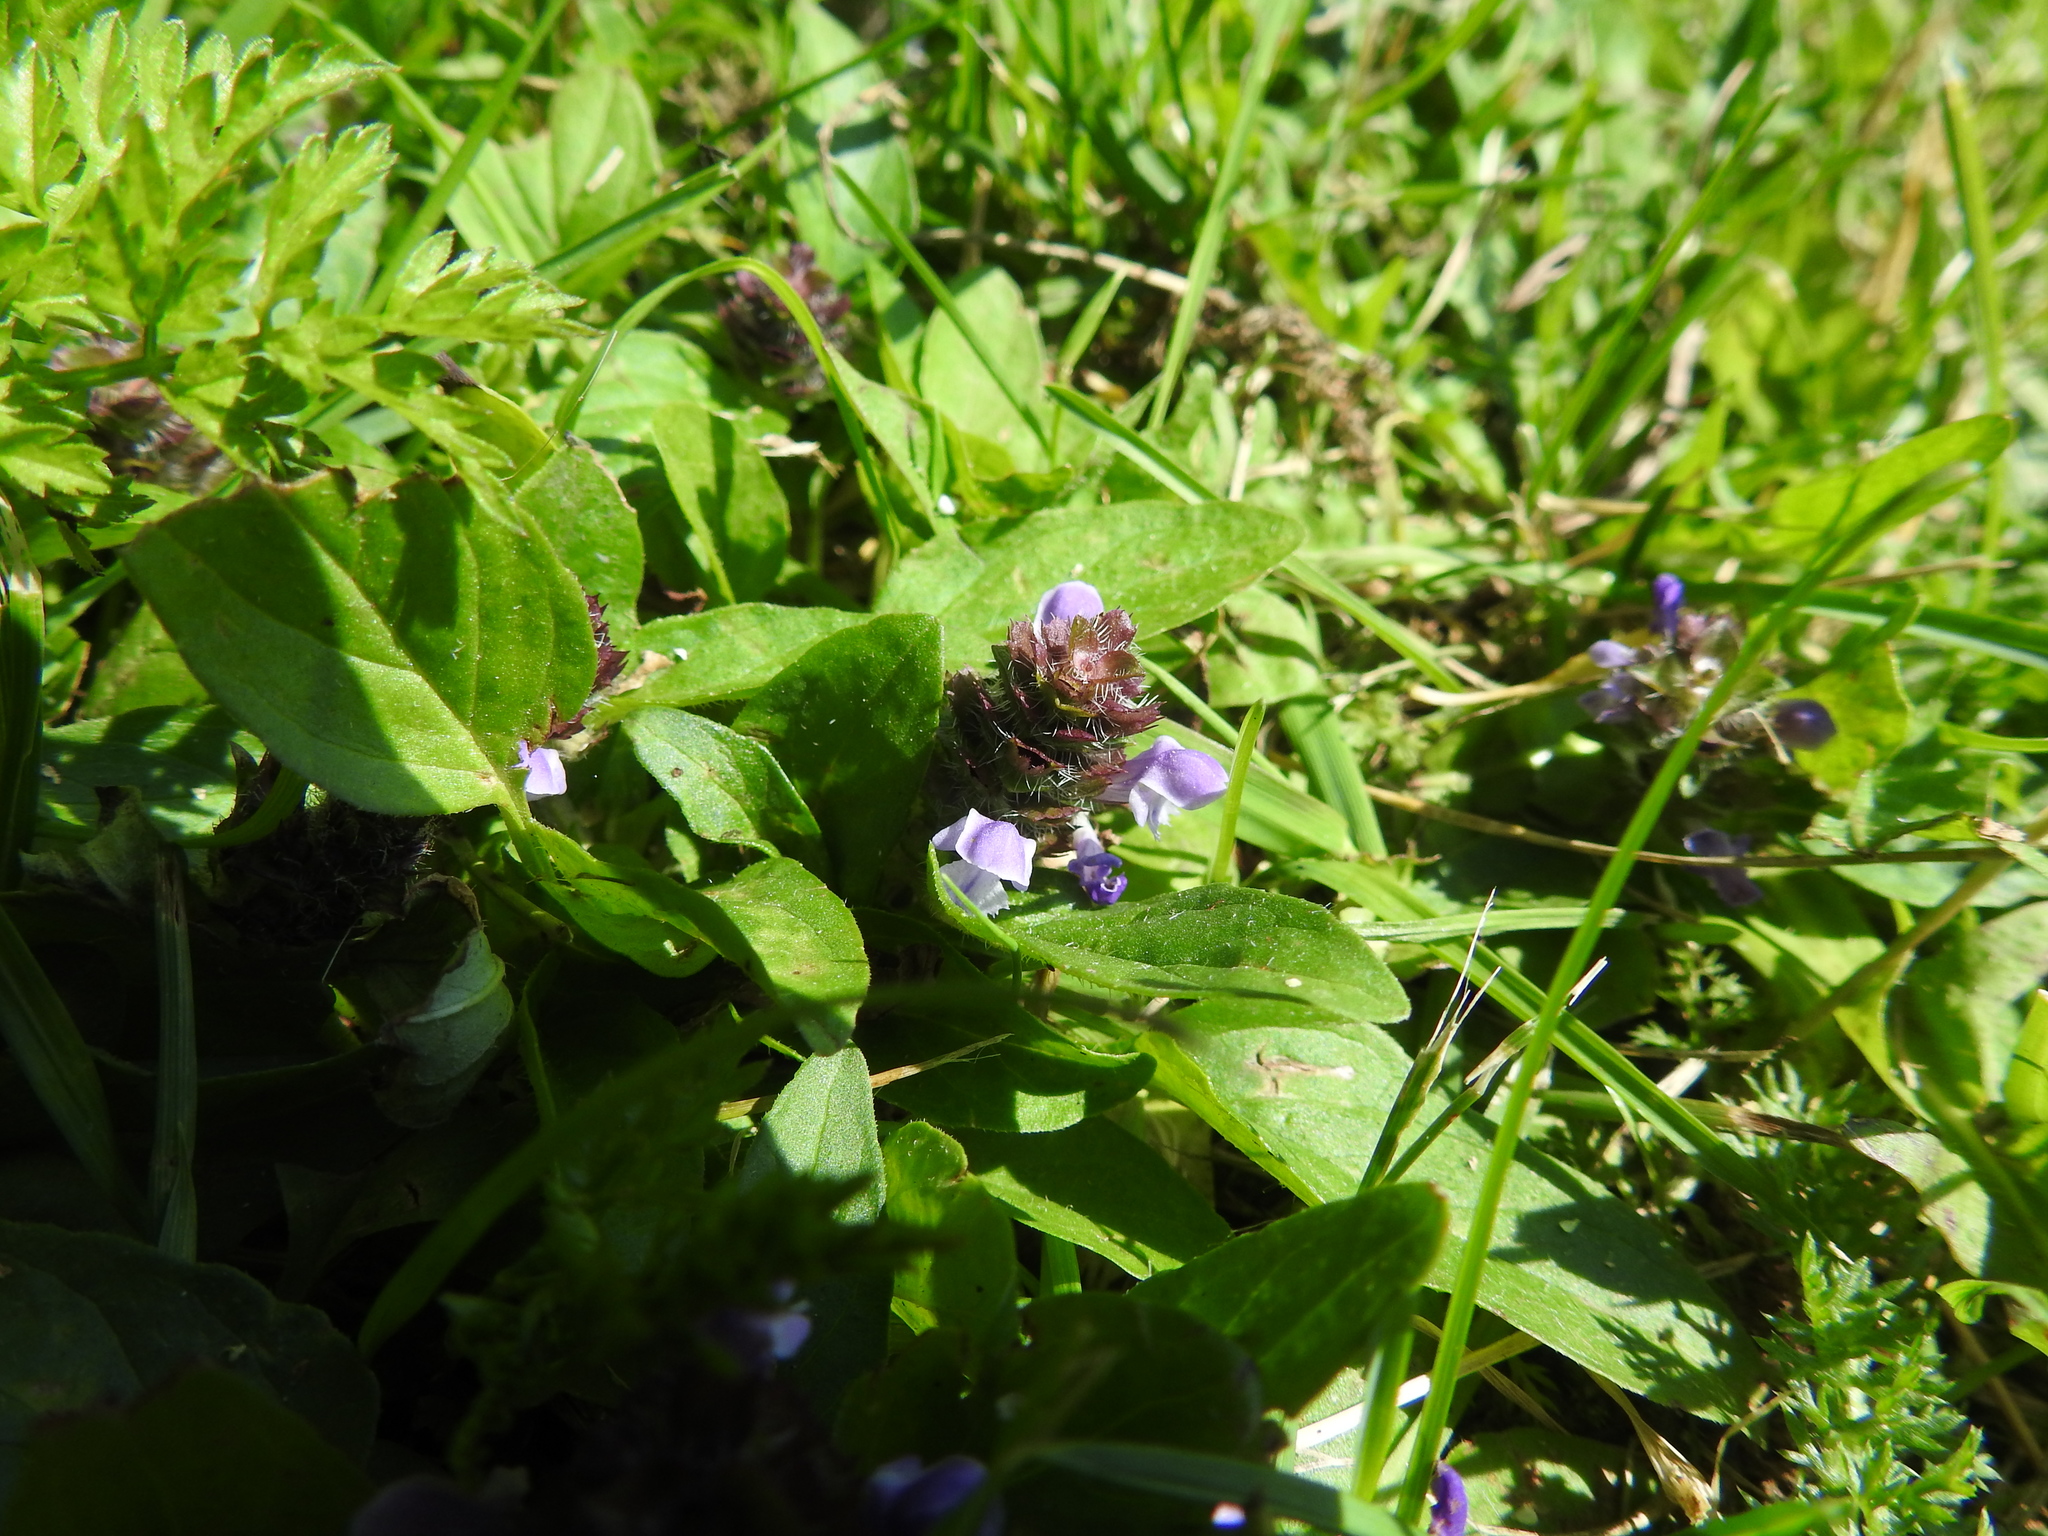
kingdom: Plantae
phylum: Tracheophyta
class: Magnoliopsida
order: Lamiales
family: Lamiaceae
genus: Prunella
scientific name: Prunella vulgaris
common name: Heal-all
